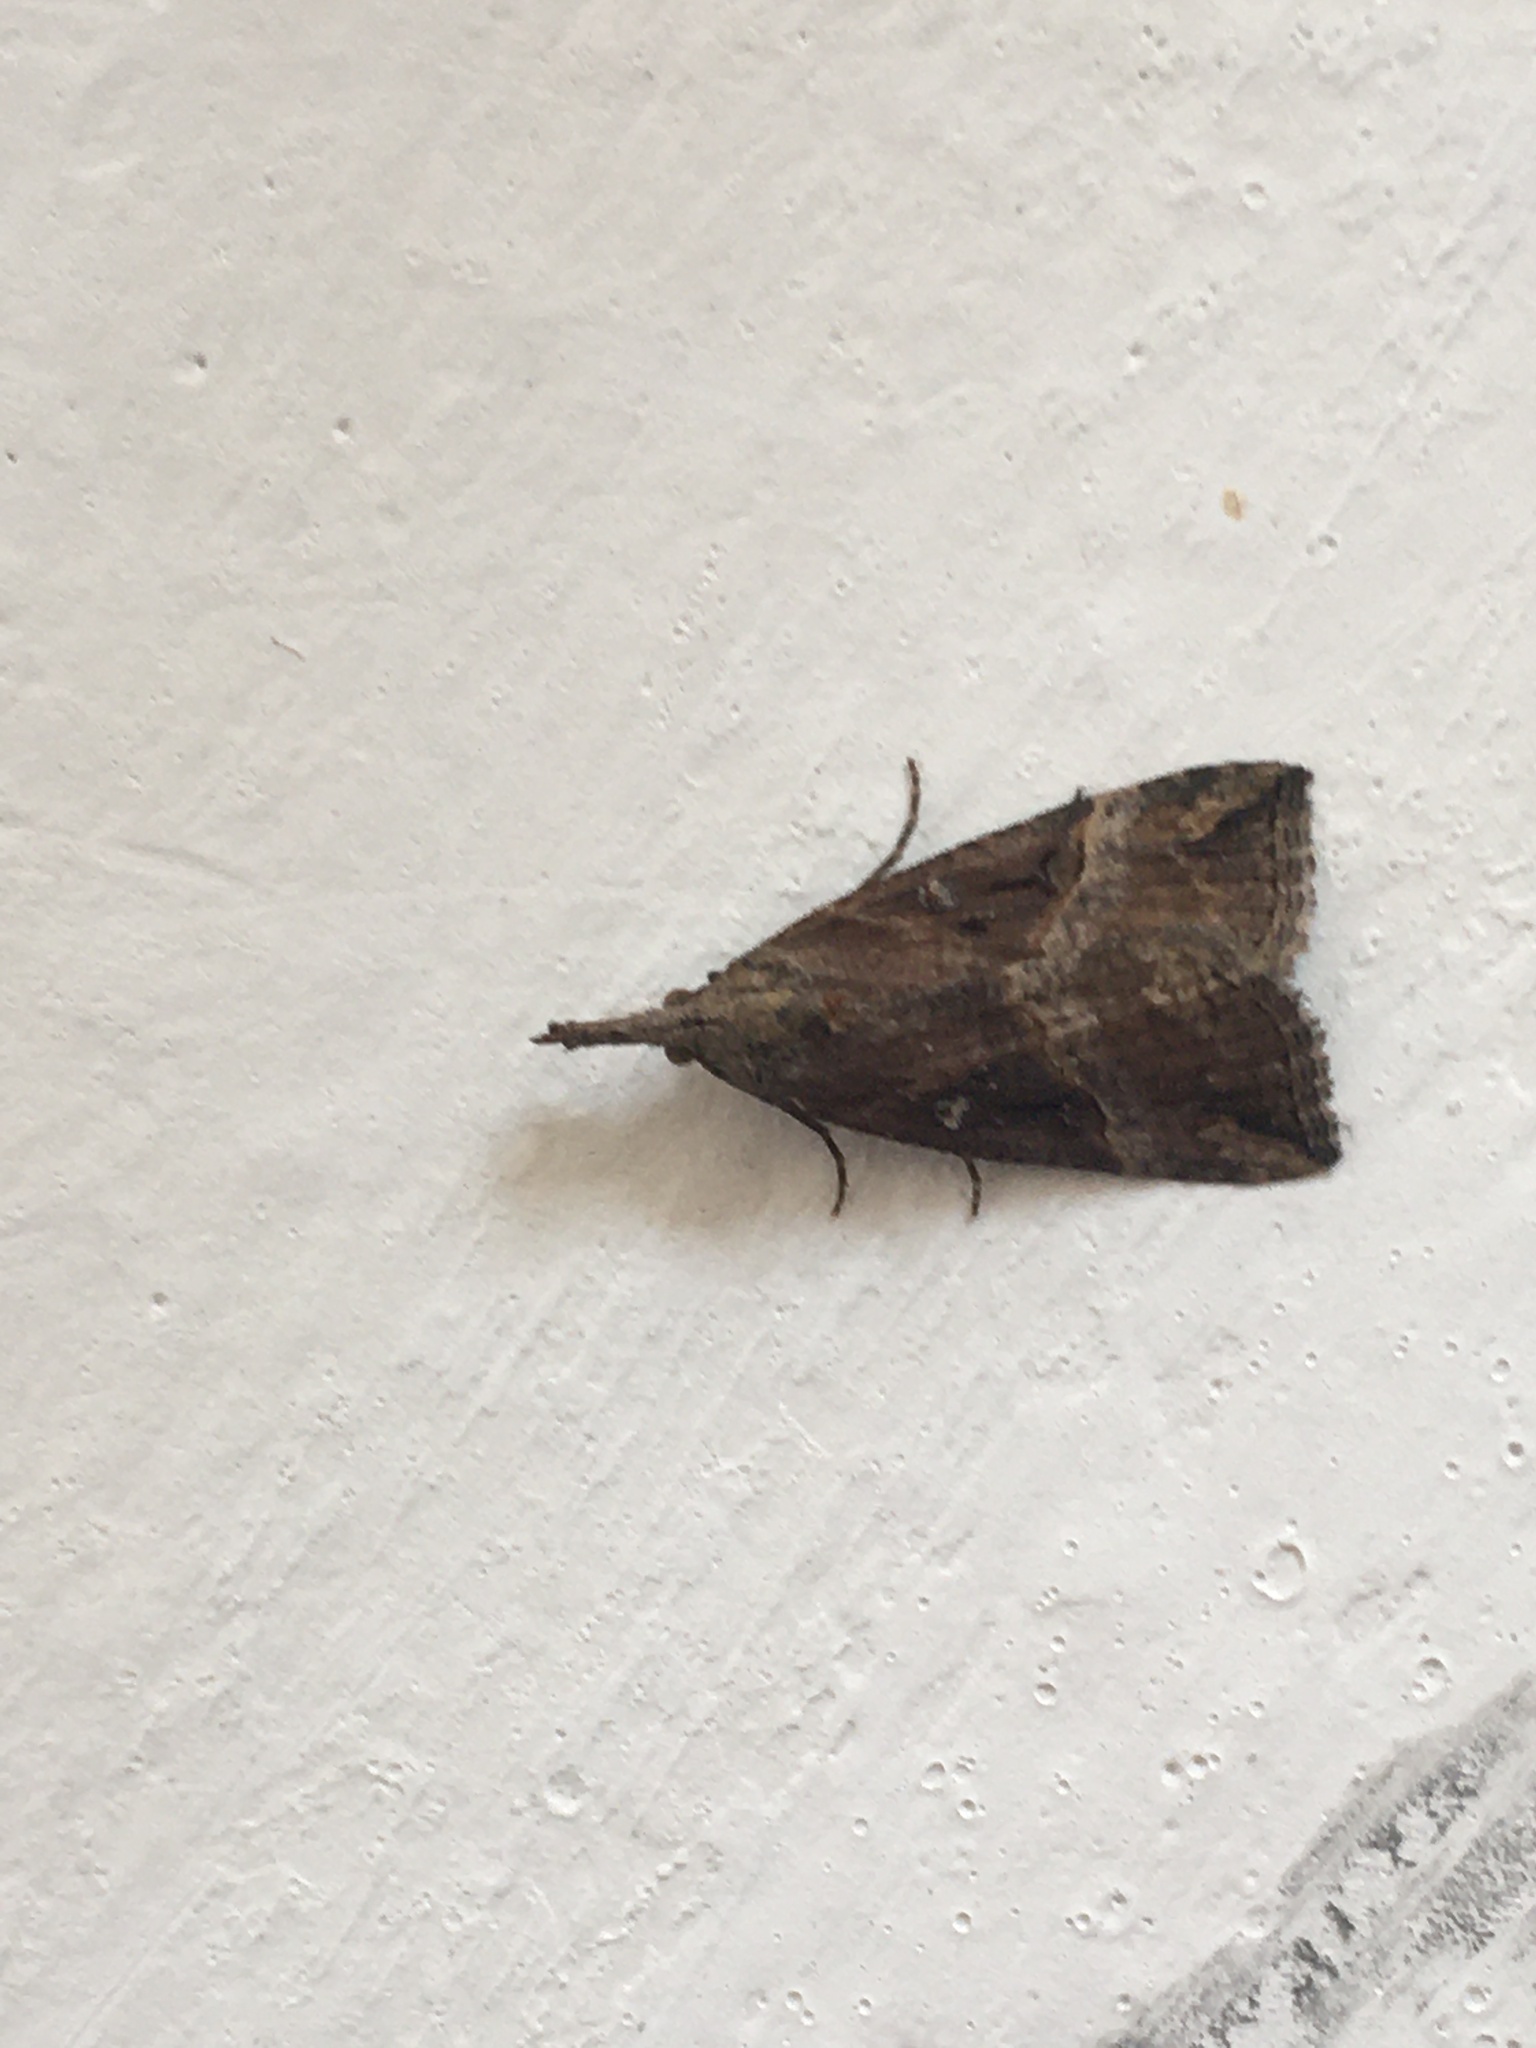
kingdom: Animalia
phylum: Arthropoda
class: Insecta
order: Lepidoptera
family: Erebidae
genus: Hypena
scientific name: Hypena rostralis
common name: Buttoned snout
